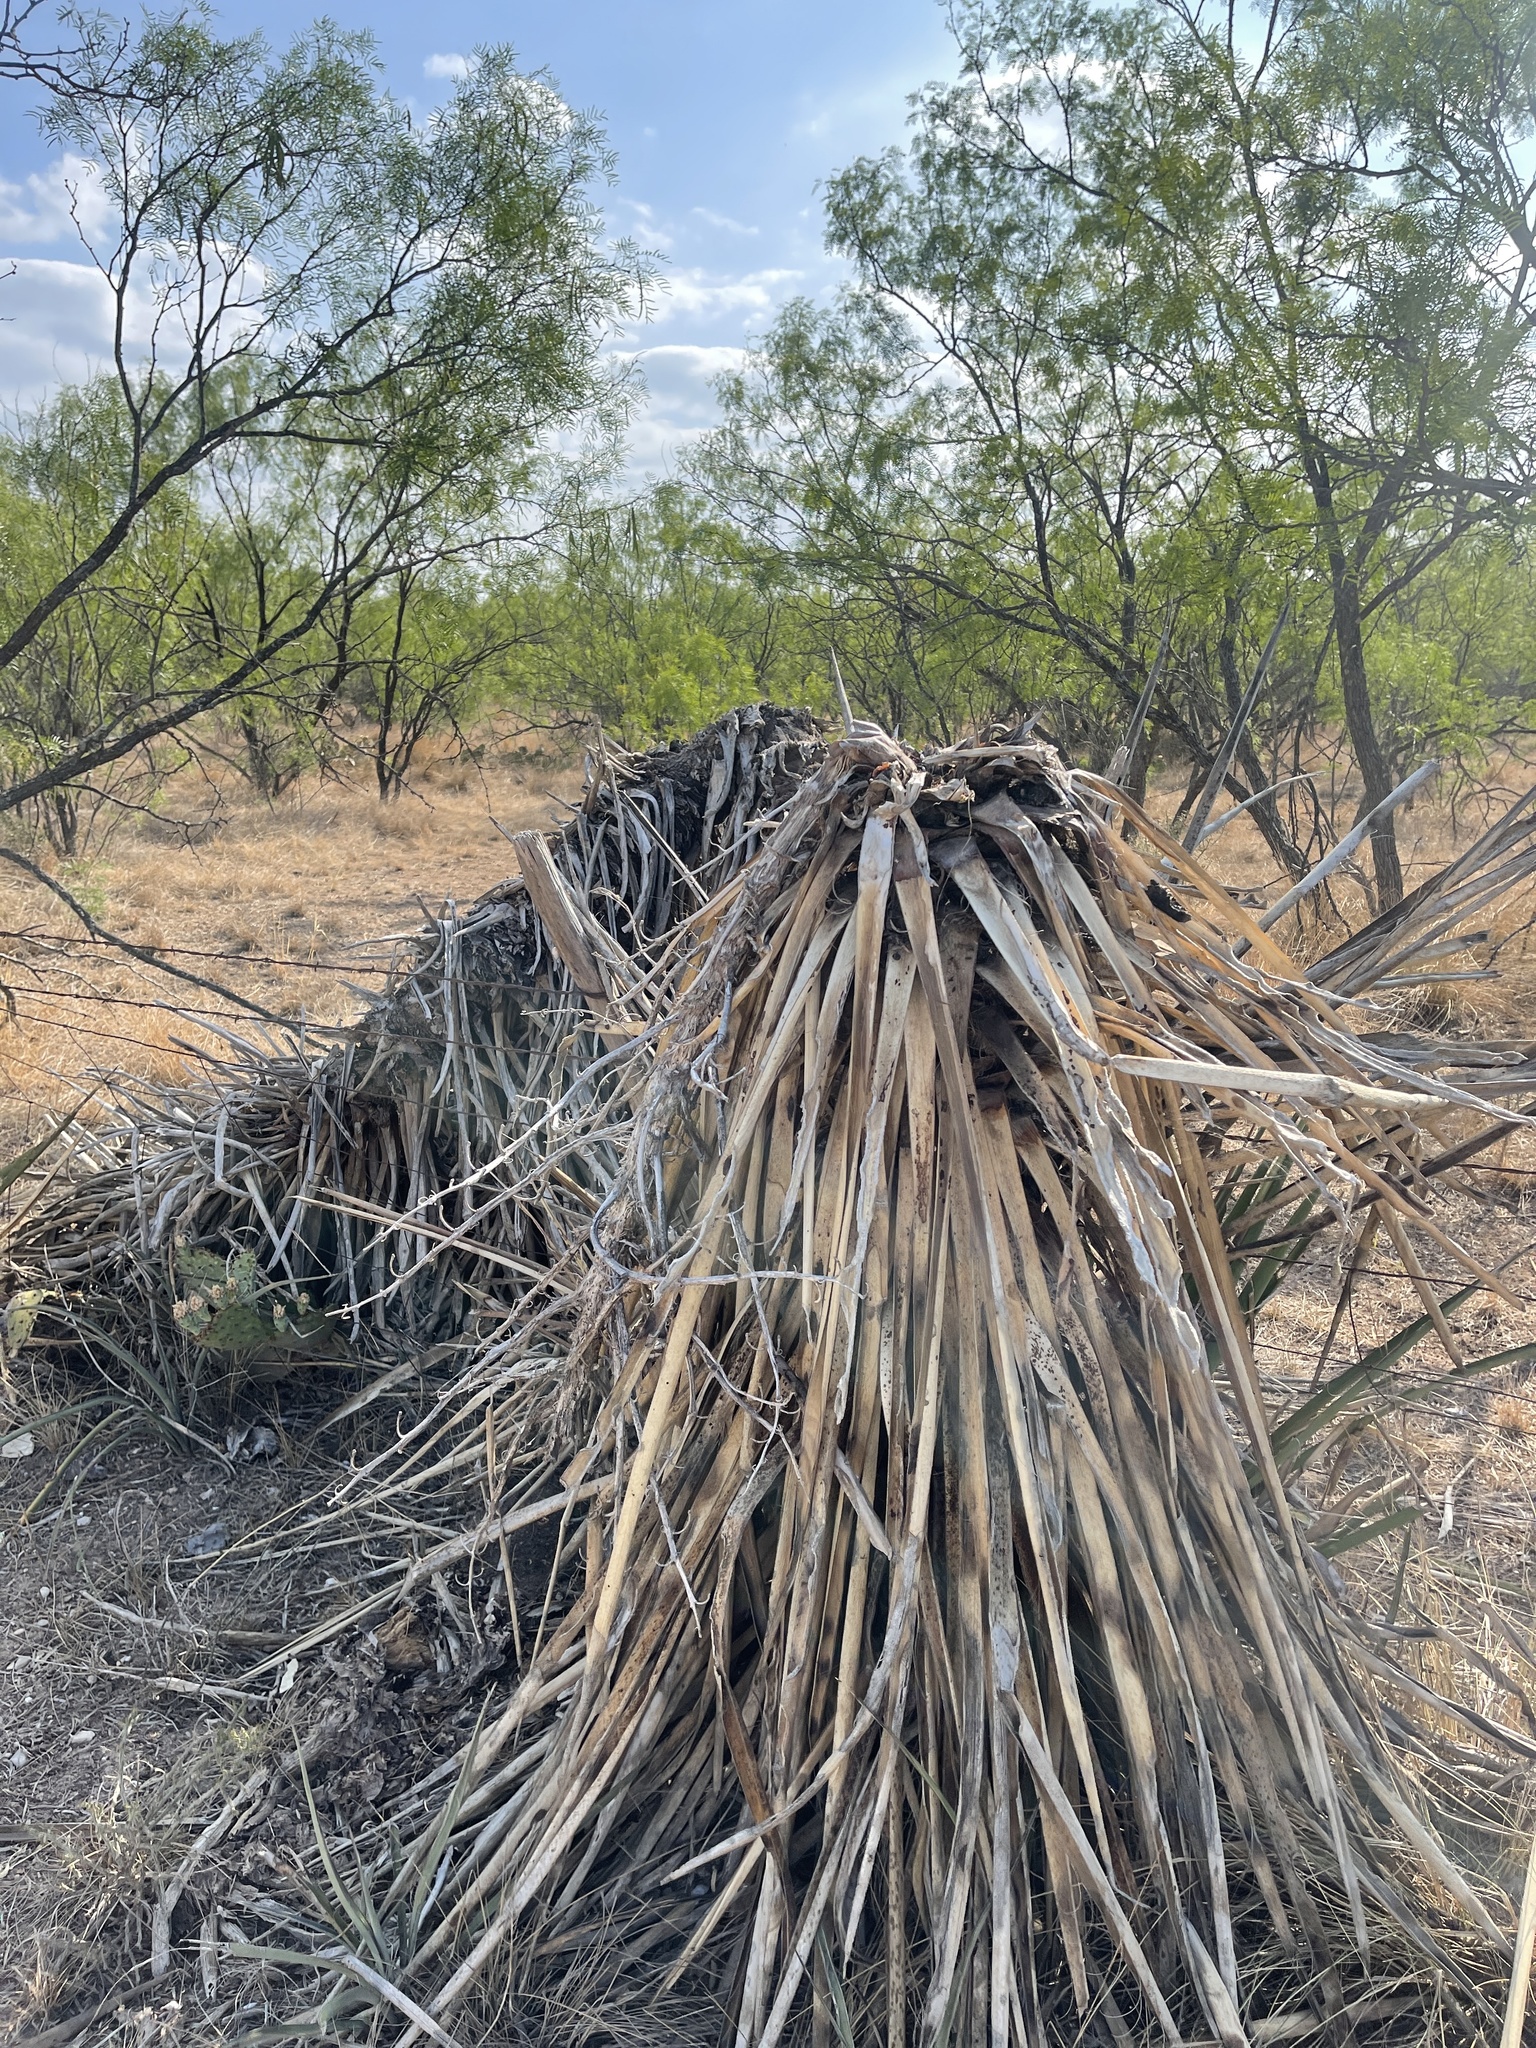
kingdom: Plantae
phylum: Tracheophyta
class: Liliopsida
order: Asparagales
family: Asparagaceae
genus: Yucca
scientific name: Yucca treculiana
